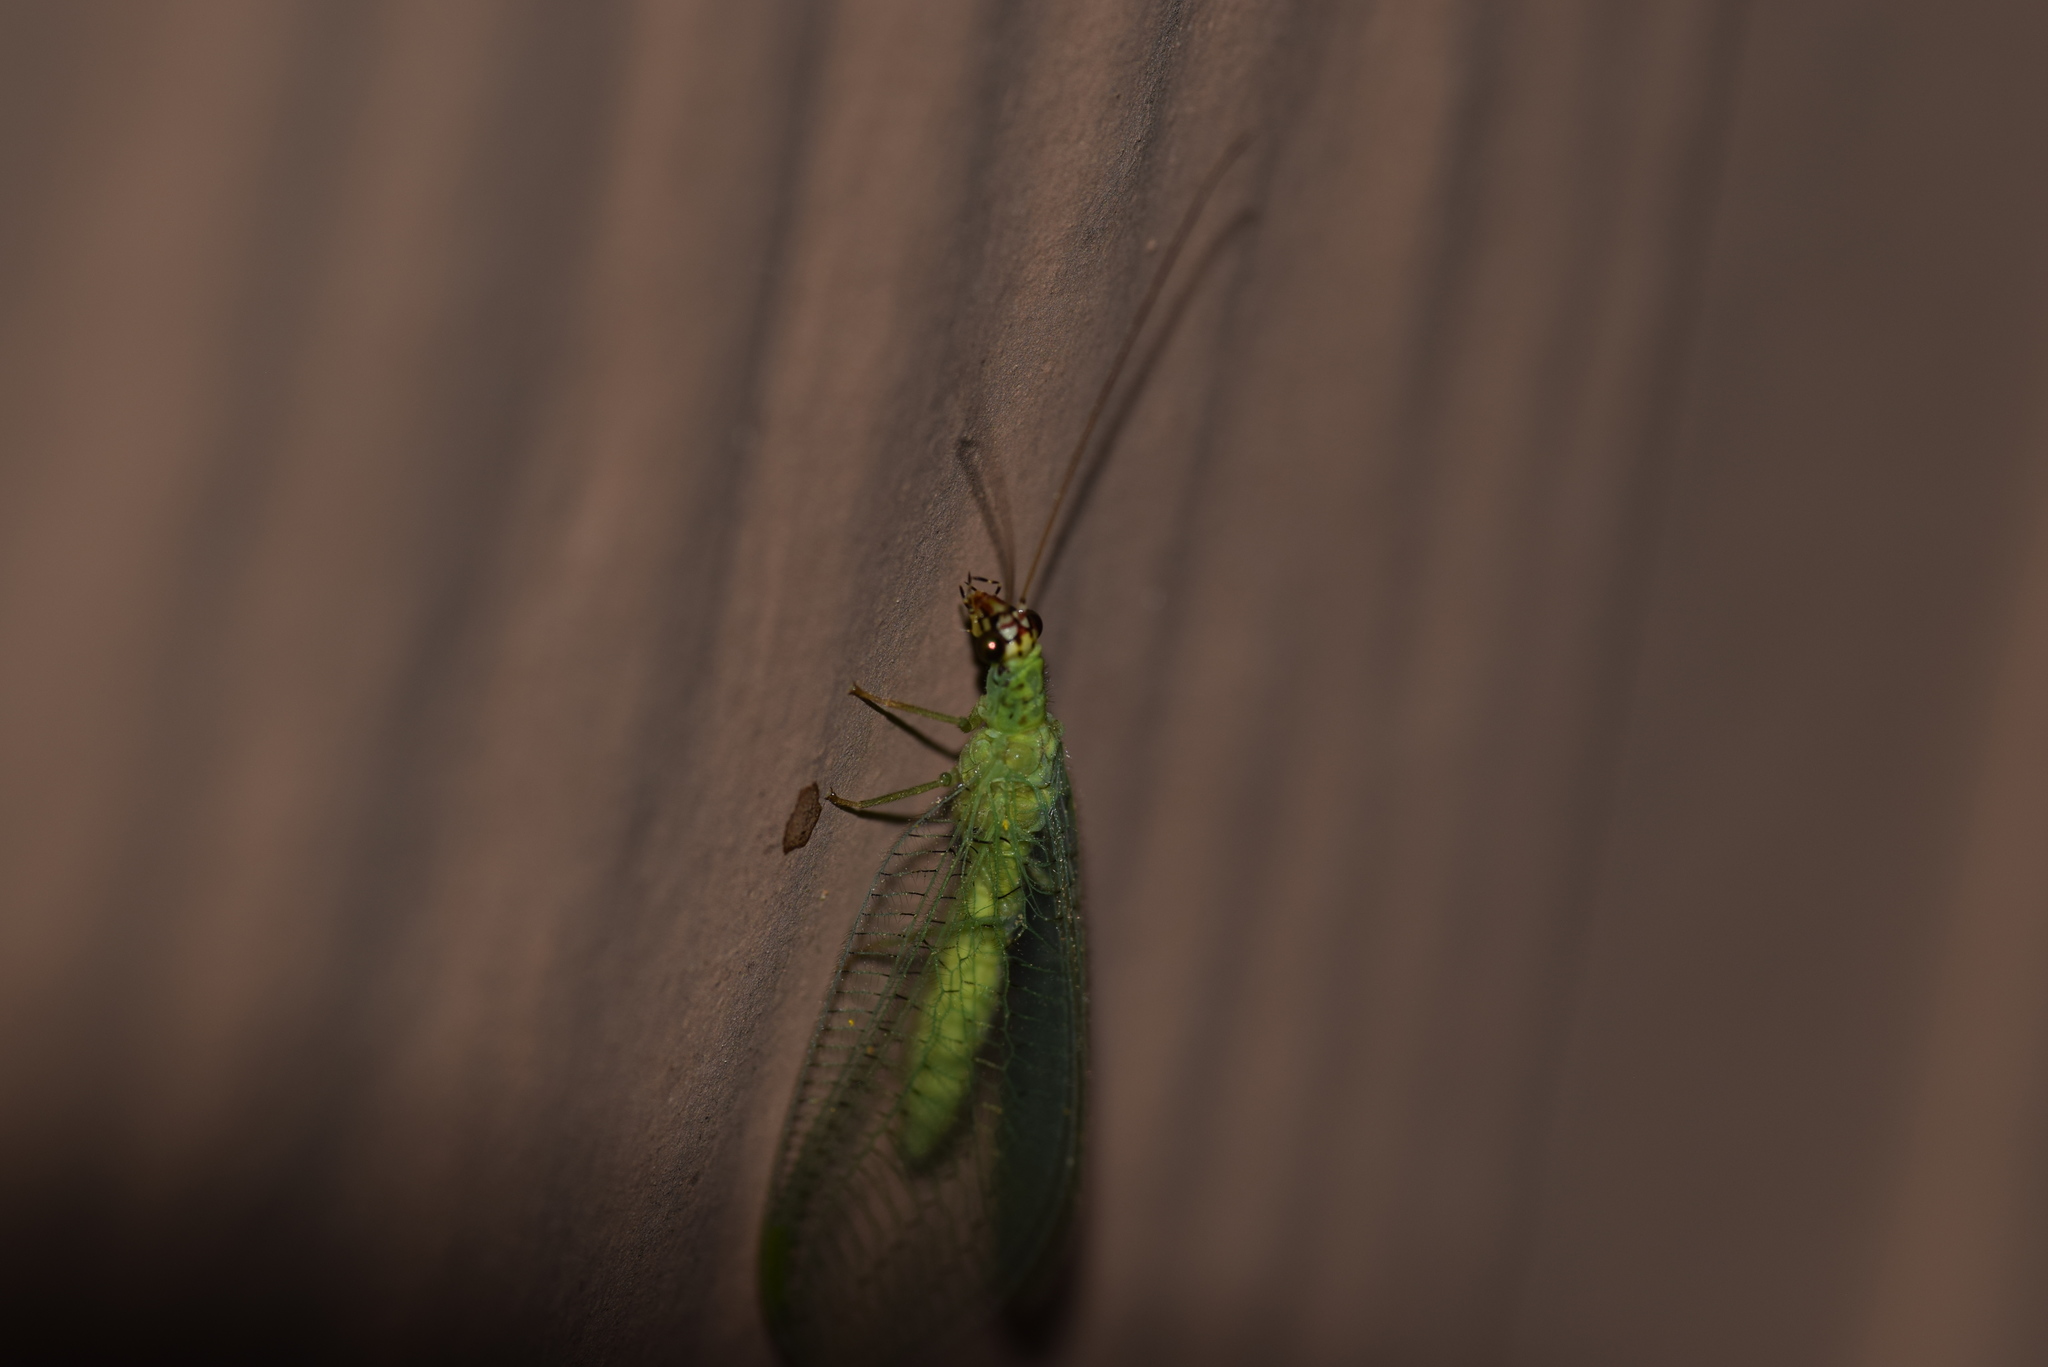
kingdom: Animalia
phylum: Arthropoda
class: Insecta
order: Neuroptera
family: Chrysopidae
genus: Chrysopa
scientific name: Chrysopa oculata
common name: Golden-eyed lacewing
